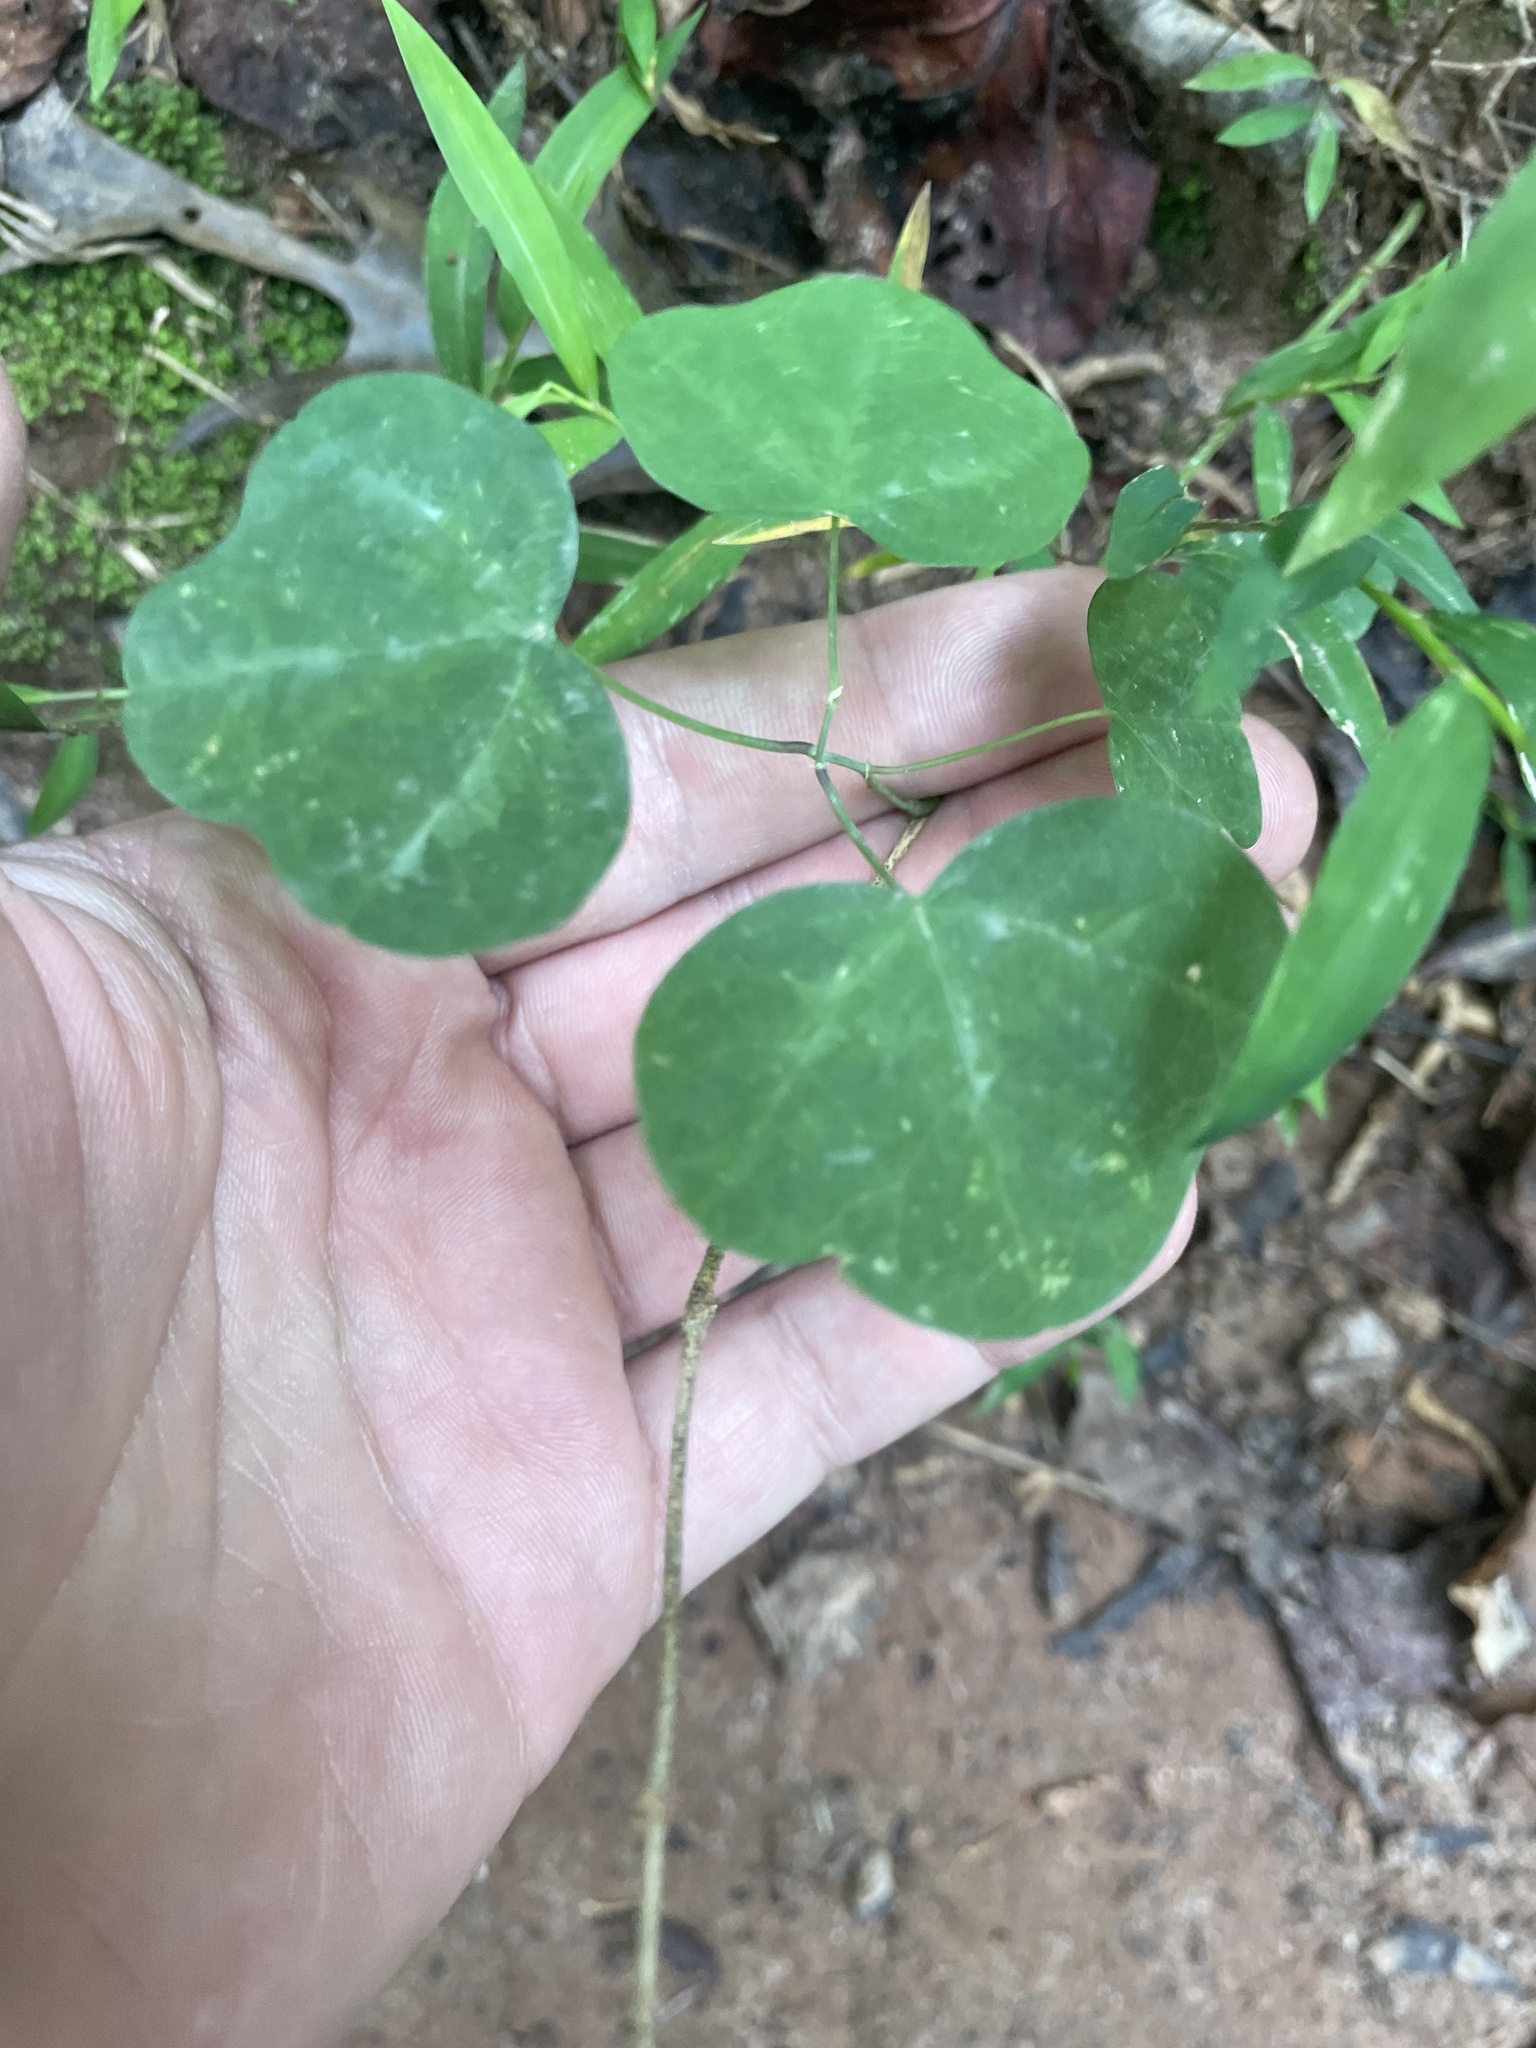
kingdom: Plantae
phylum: Tracheophyta
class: Magnoliopsida
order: Malpighiales
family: Passifloraceae
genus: Passiflora
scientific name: Passiflora lutea
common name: Yellow passionflower
